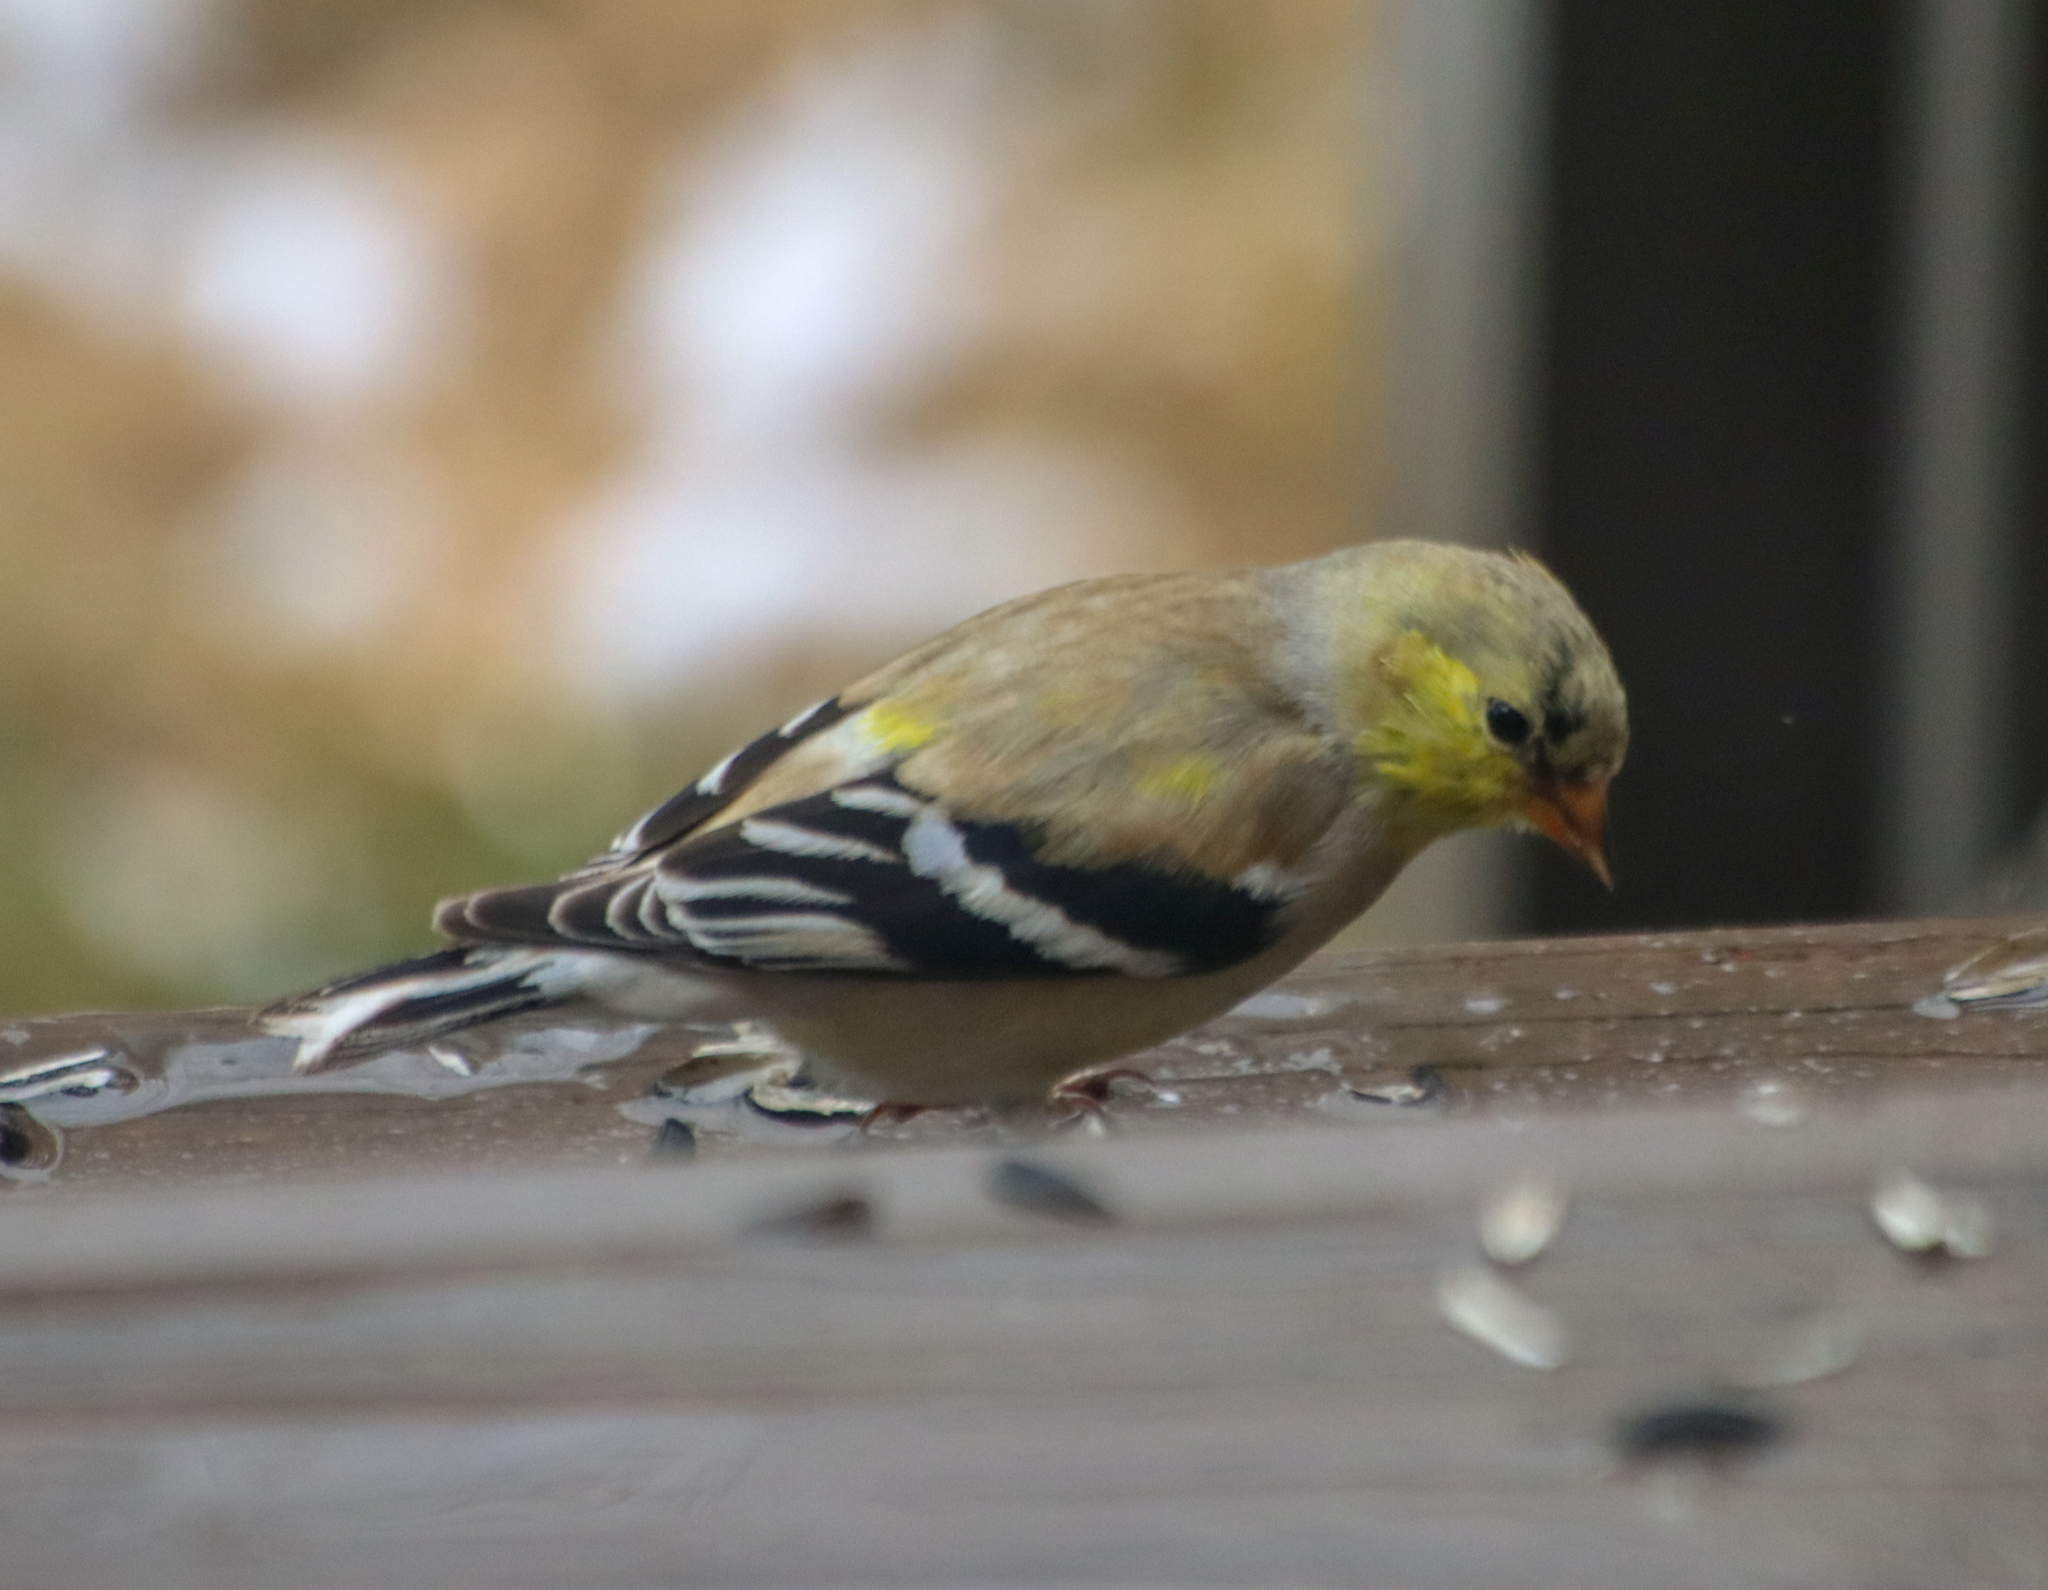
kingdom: Animalia
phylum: Chordata
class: Aves
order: Passeriformes
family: Fringillidae
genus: Spinus
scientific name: Spinus tristis
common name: American goldfinch
